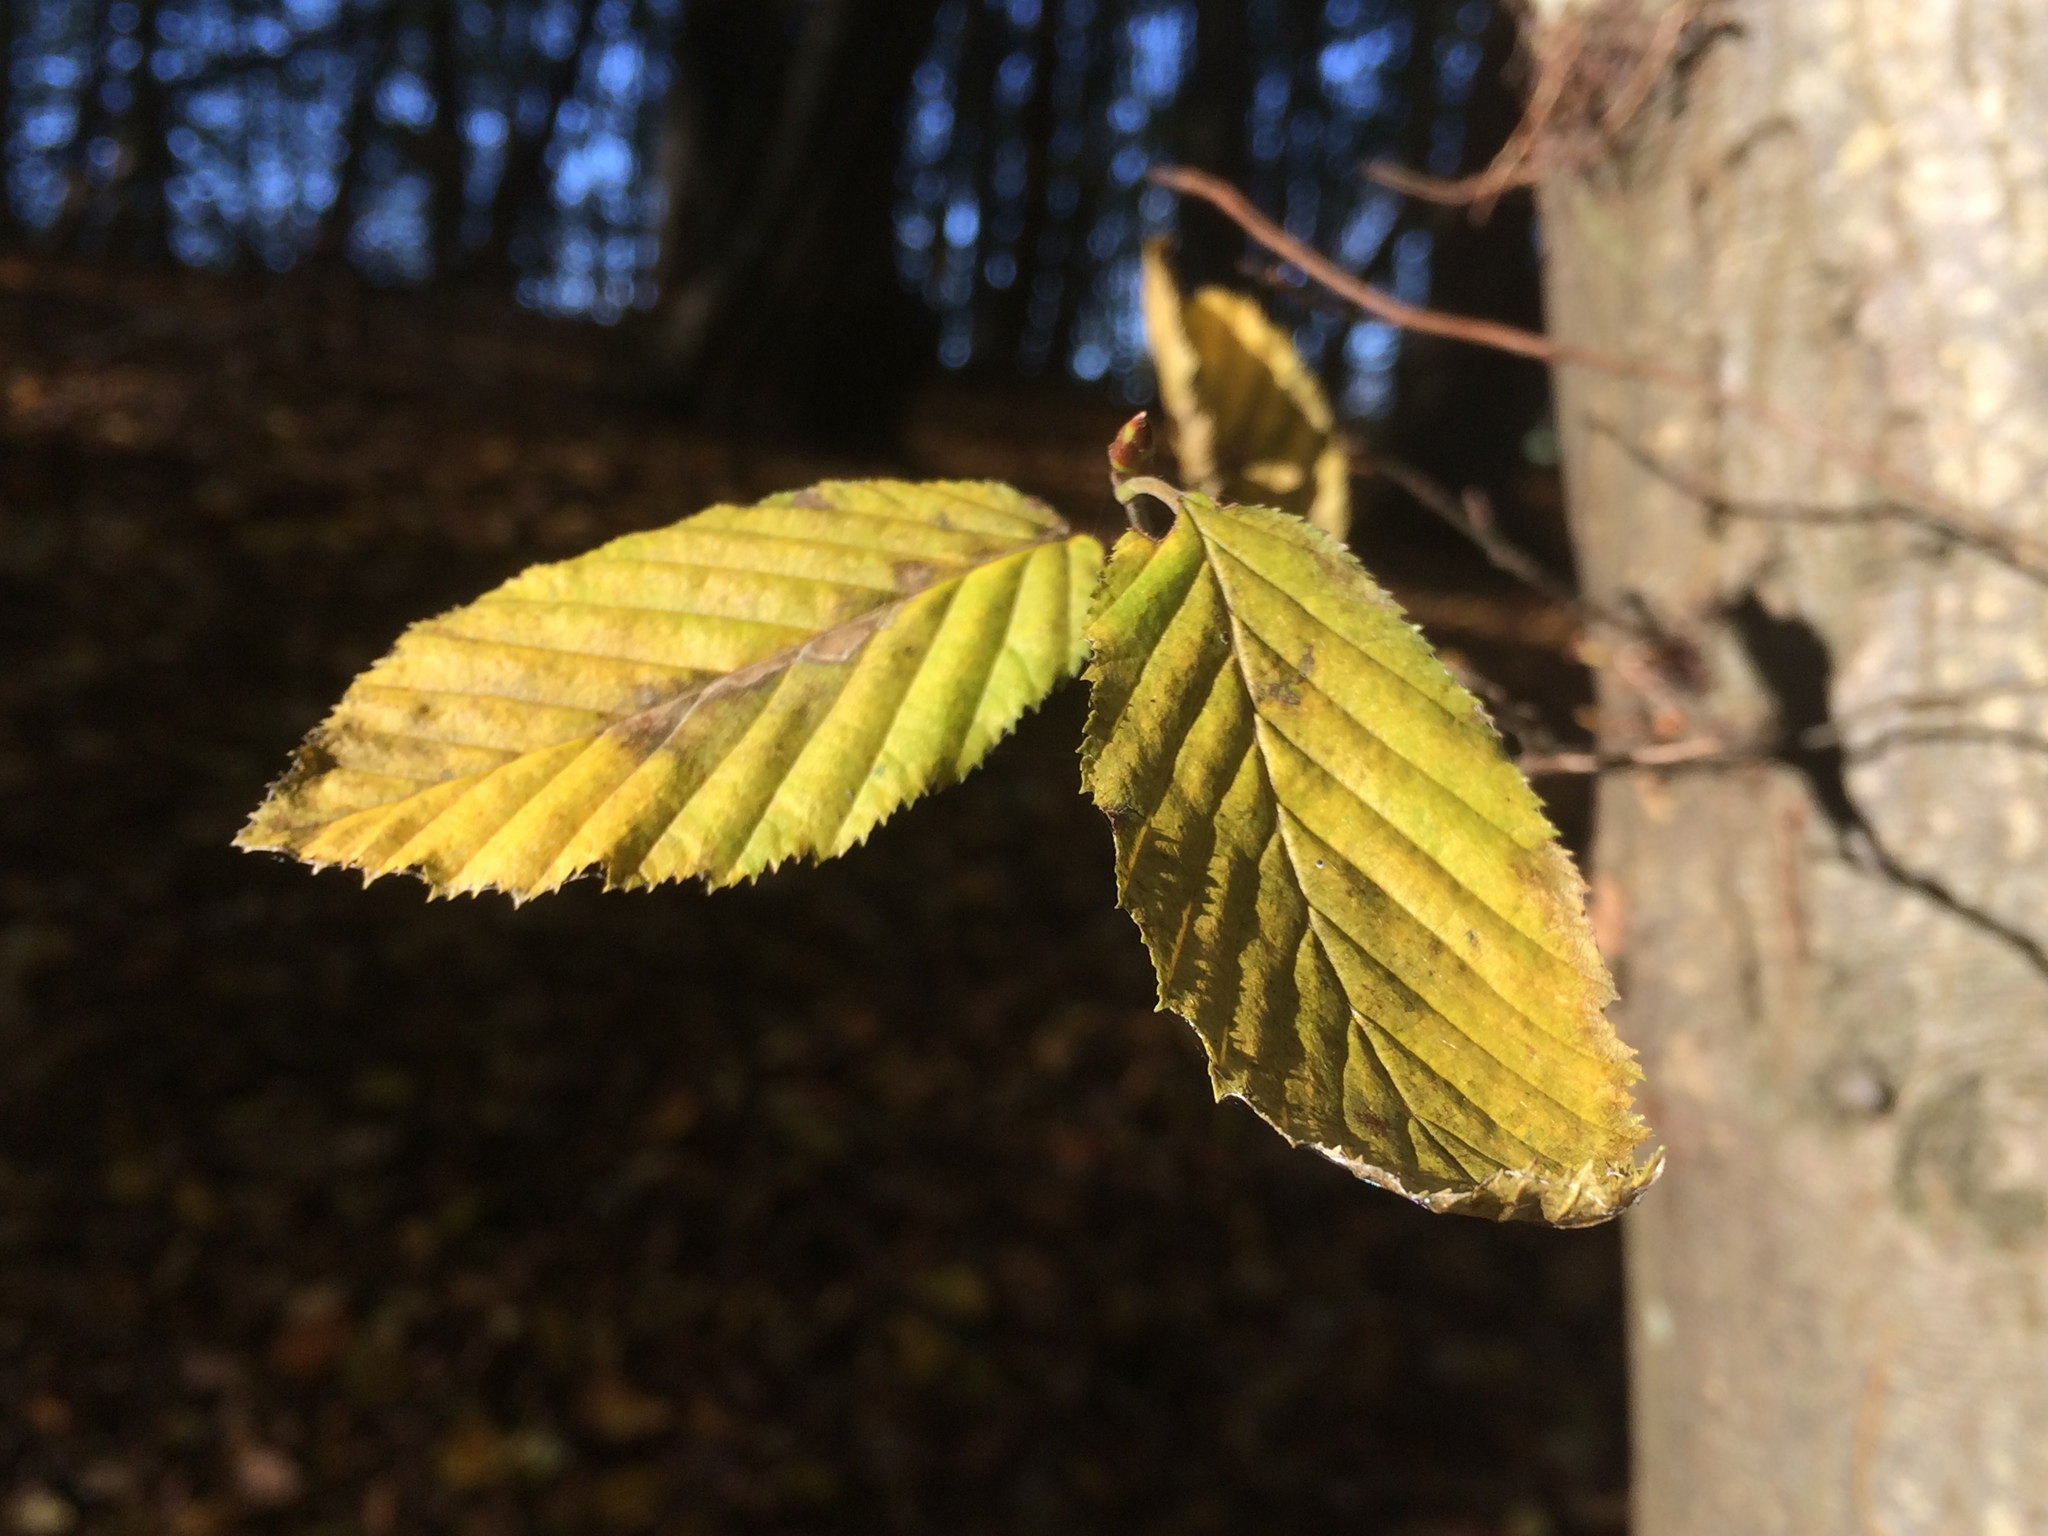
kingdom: Plantae
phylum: Tracheophyta
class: Magnoliopsida
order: Fagales
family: Betulaceae
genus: Carpinus
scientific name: Carpinus betulus
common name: Hornbeam
